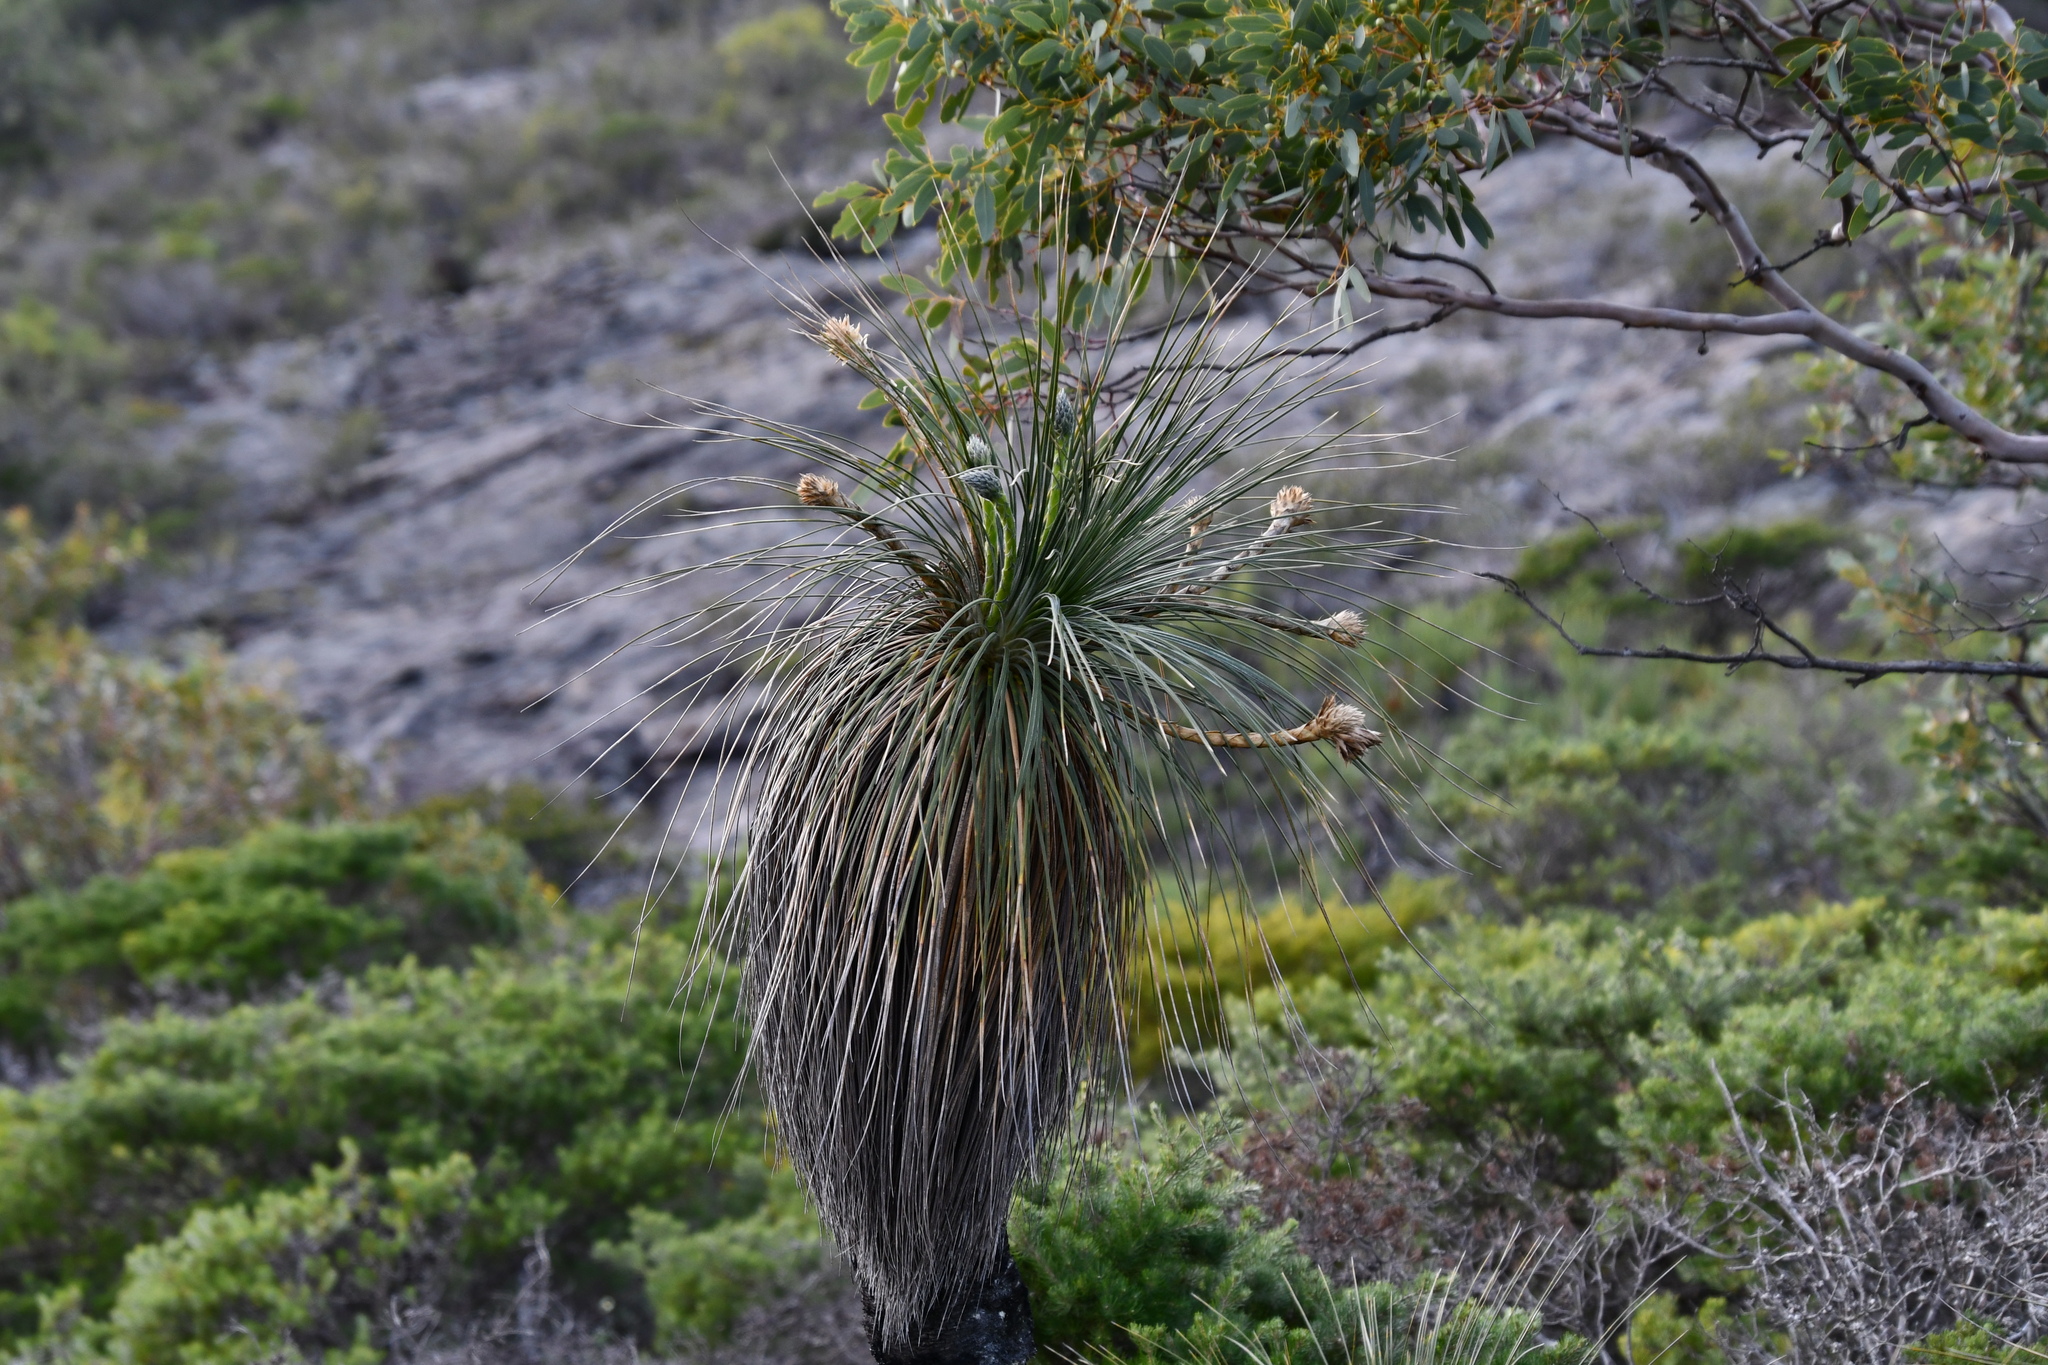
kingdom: Plantae
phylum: Tracheophyta
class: Liliopsida
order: Arecales
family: Dasypogonaceae
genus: Kingia
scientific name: Kingia australis
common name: Black gin
